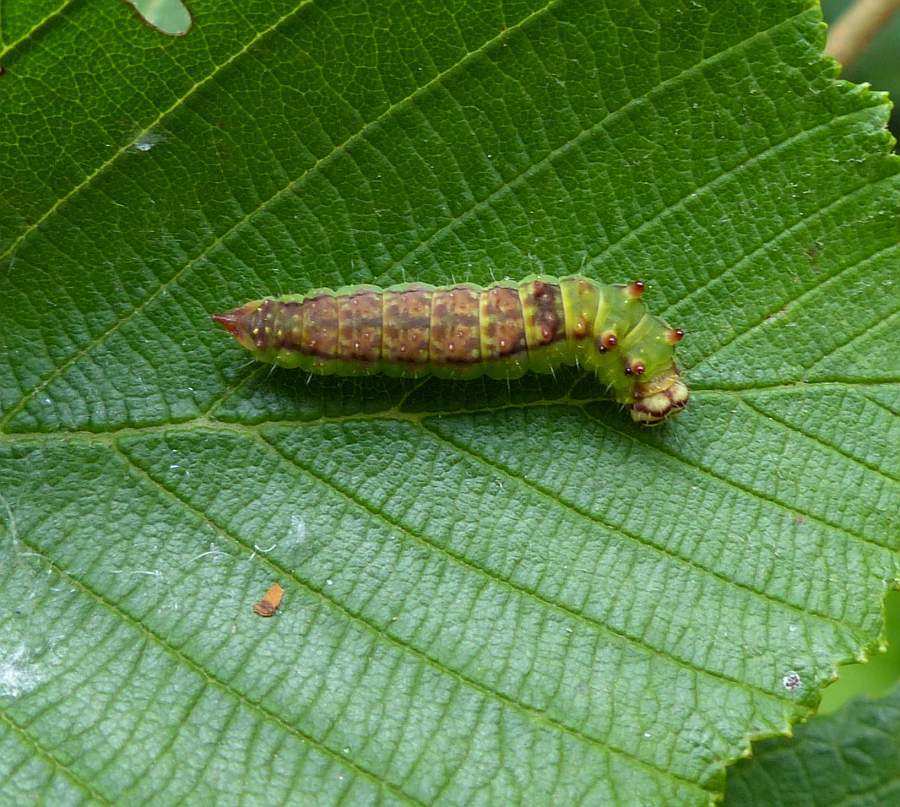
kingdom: Animalia
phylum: Arthropoda
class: Insecta
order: Lepidoptera
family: Drepanidae
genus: Drepana
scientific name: Drepana arcuata
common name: Arched hooktip moth
